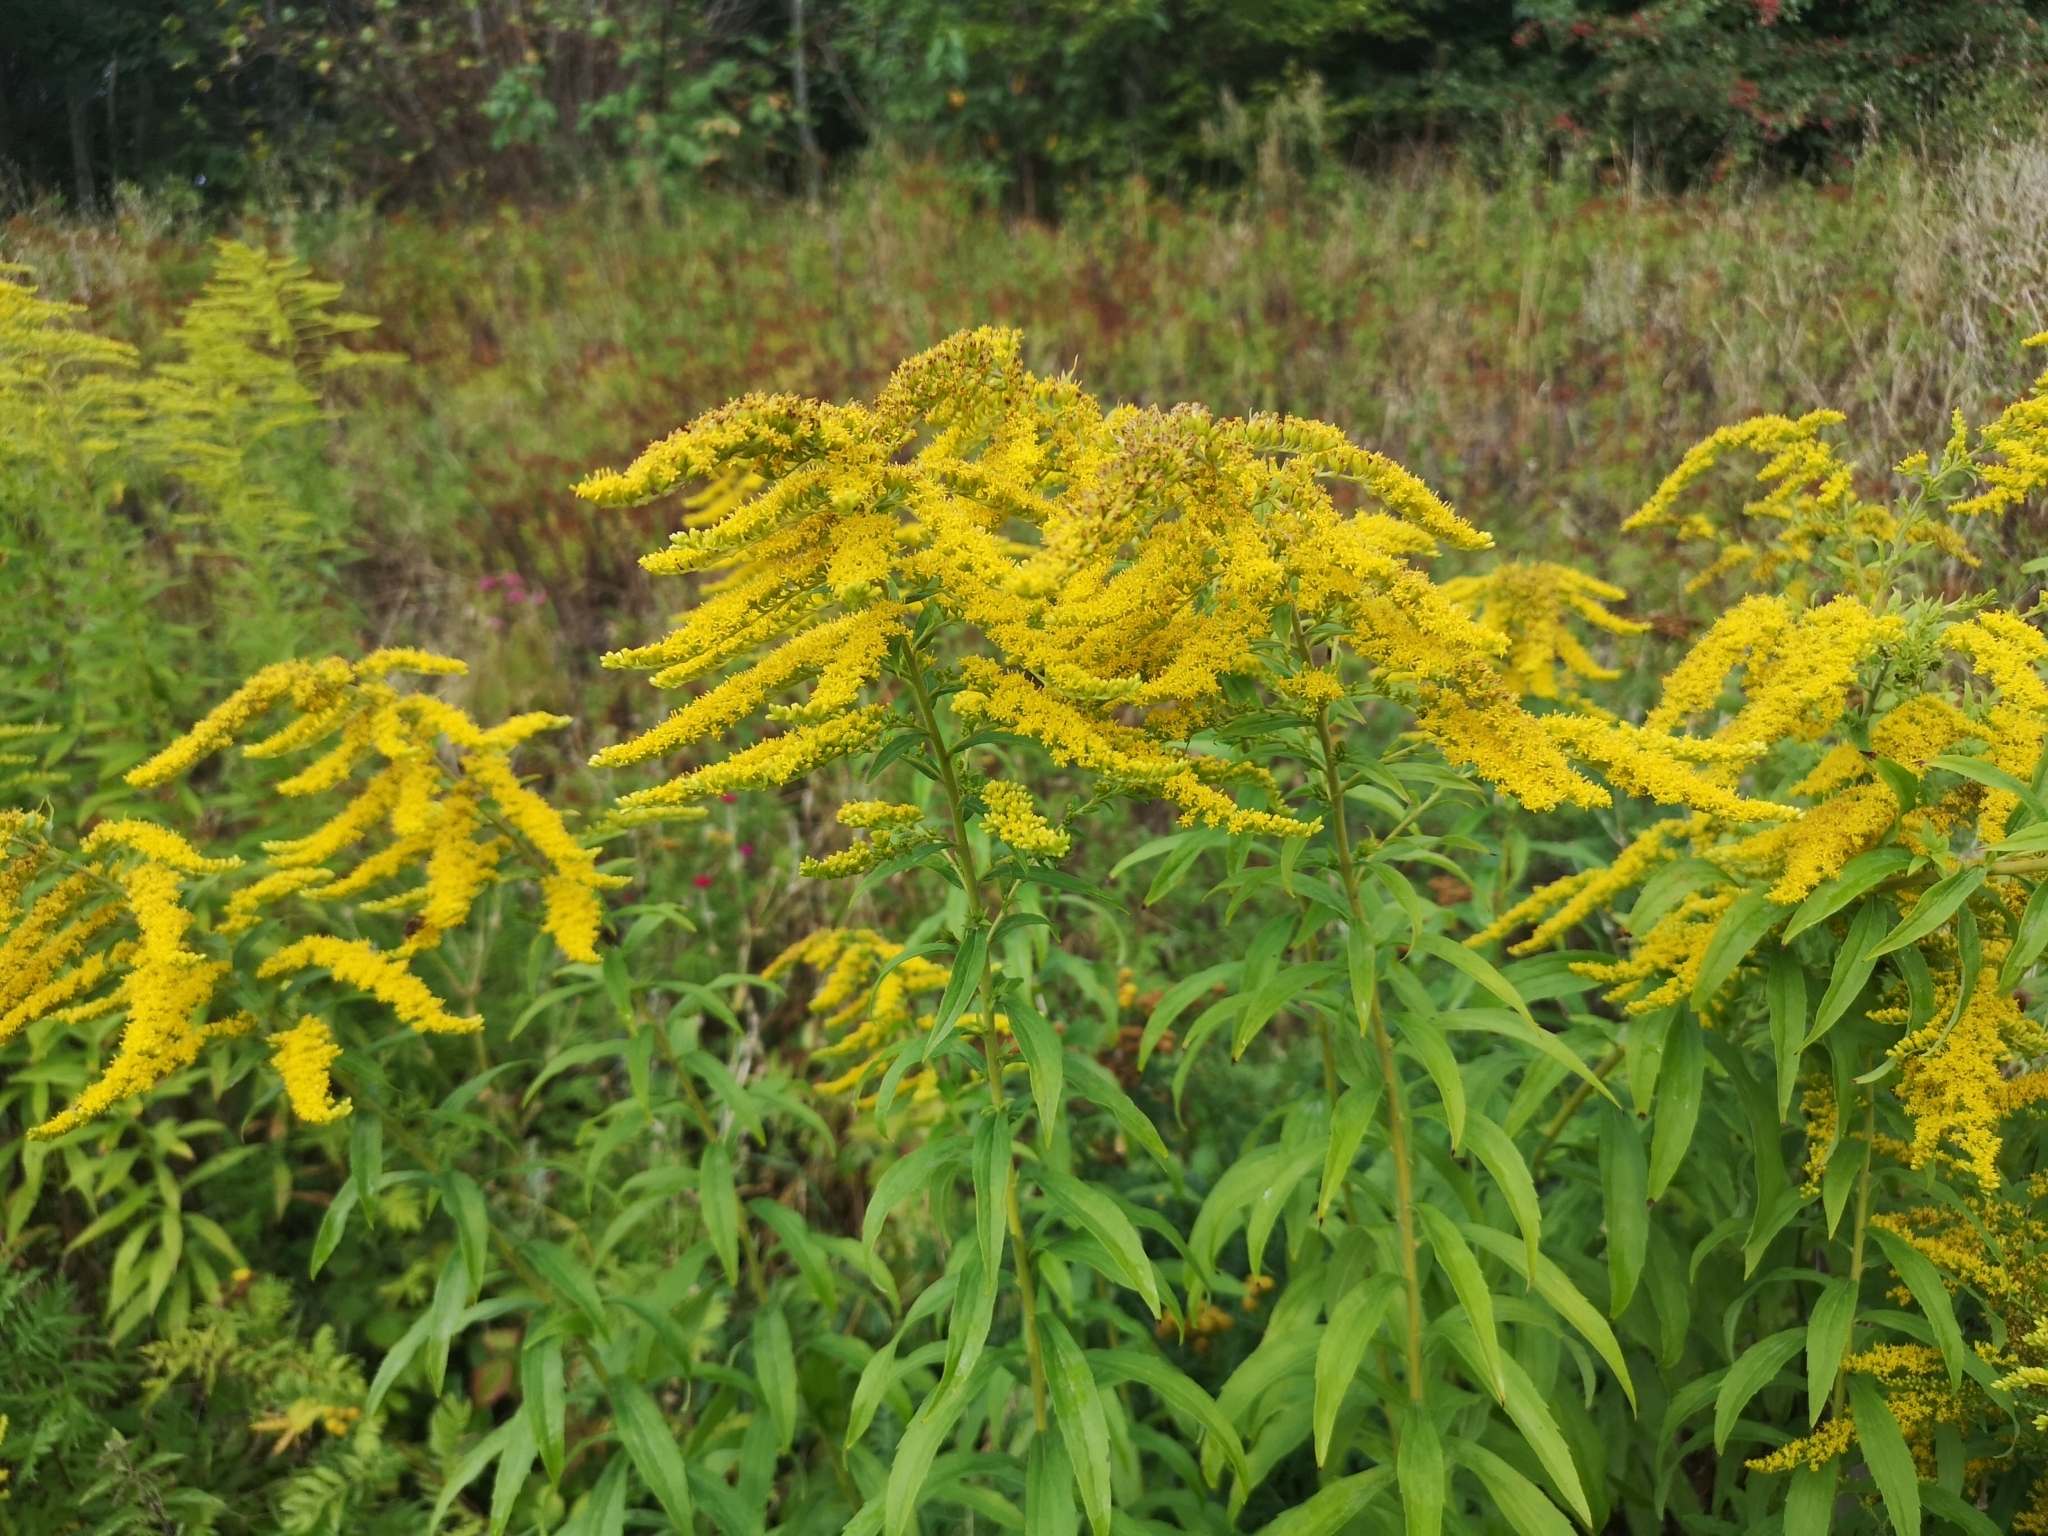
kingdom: Plantae
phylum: Tracheophyta
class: Magnoliopsida
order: Asterales
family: Asteraceae
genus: Solidago
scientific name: Solidago canadensis
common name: Canada goldenrod
